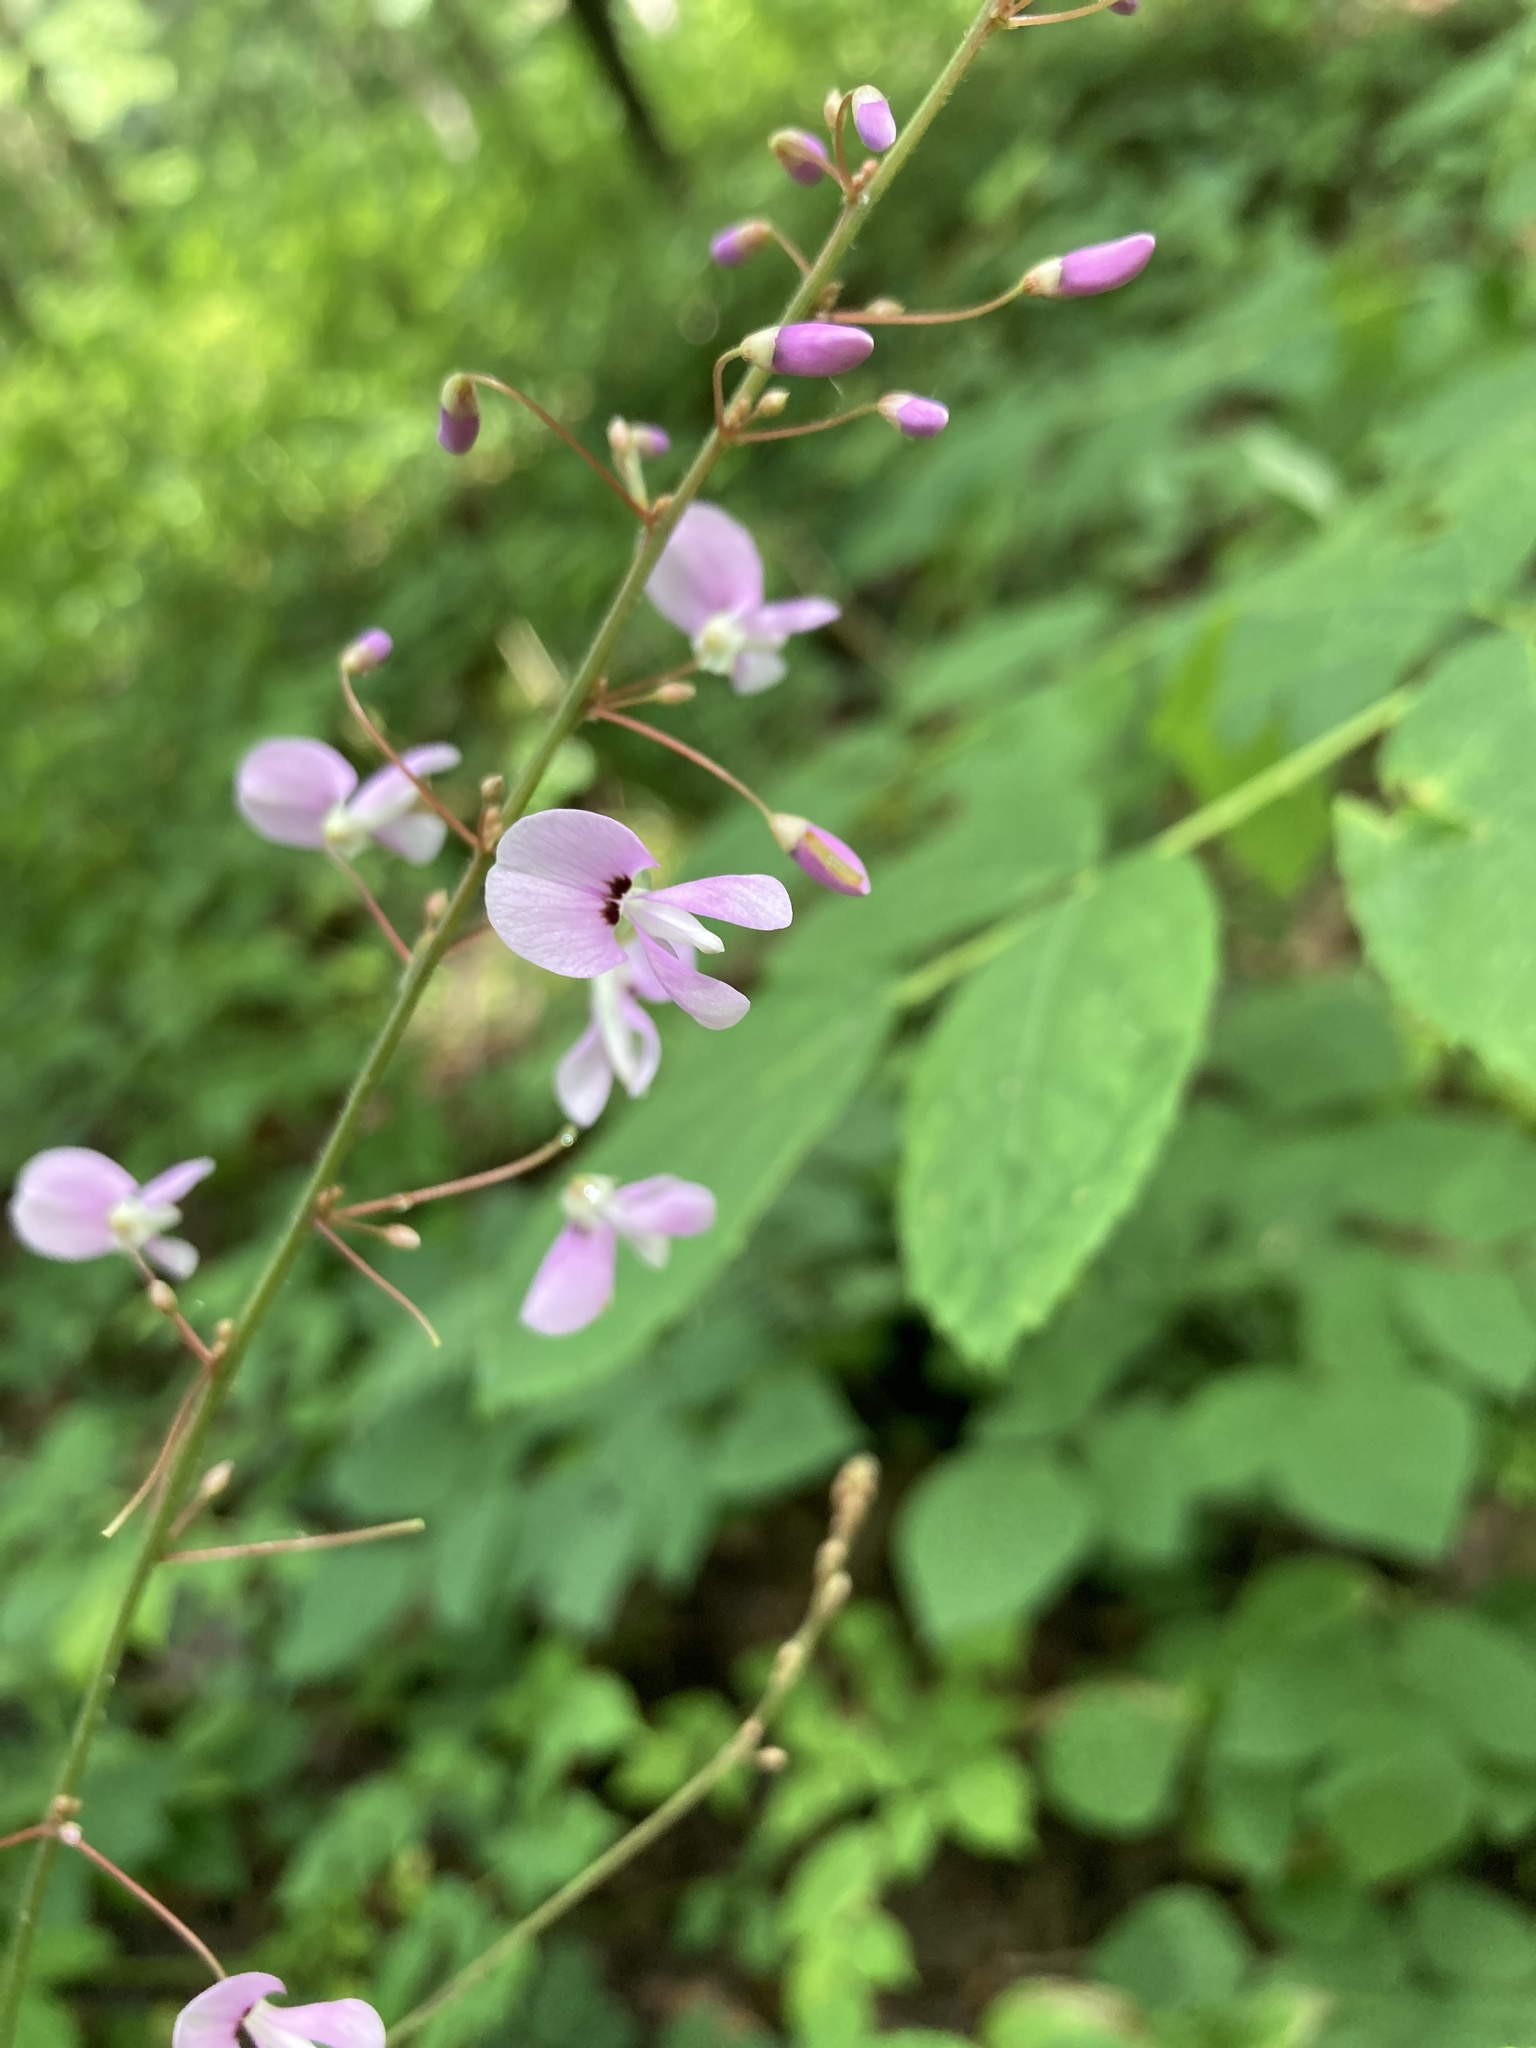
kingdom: Plantae
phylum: Tracheophyta
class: Magnoliopsida
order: Fabales
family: Fabaceae
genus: Hylodesmum
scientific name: Hylodesmum nudiflorum
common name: Bare-stemmed tick-trefoil
